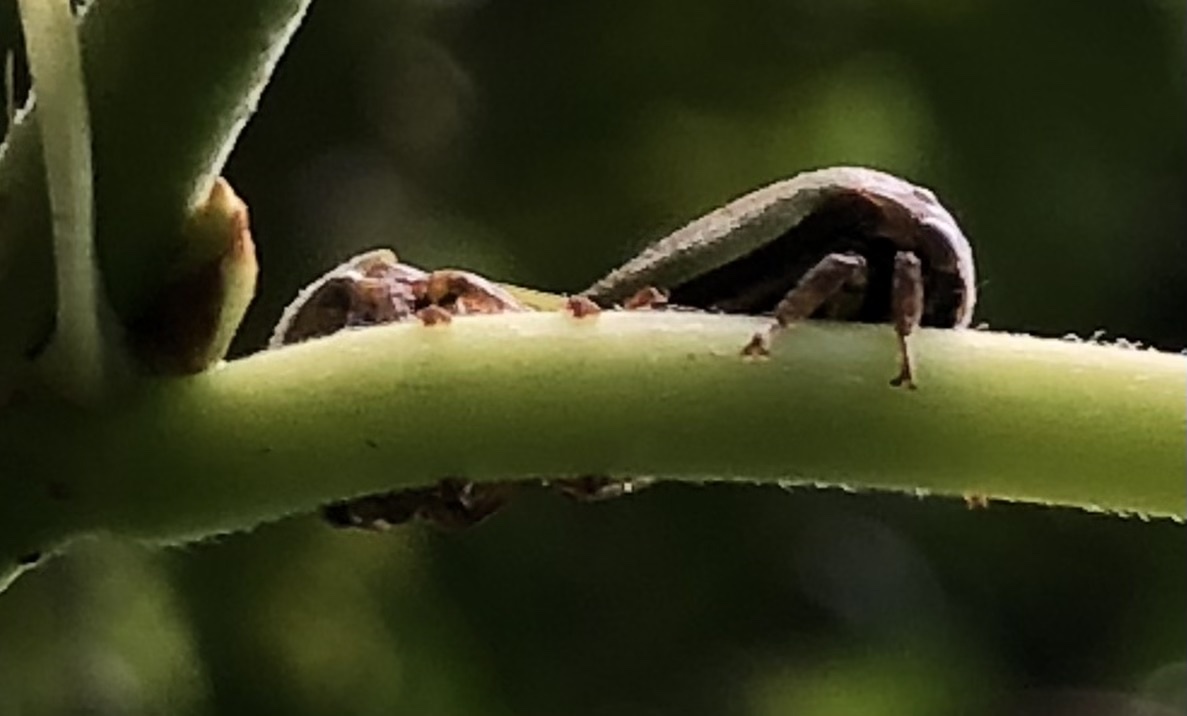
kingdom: Animalia
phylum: Arthropoda
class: Insecta
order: Hemiptera
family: Membracidae
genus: Hebetica
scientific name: Hebetica
